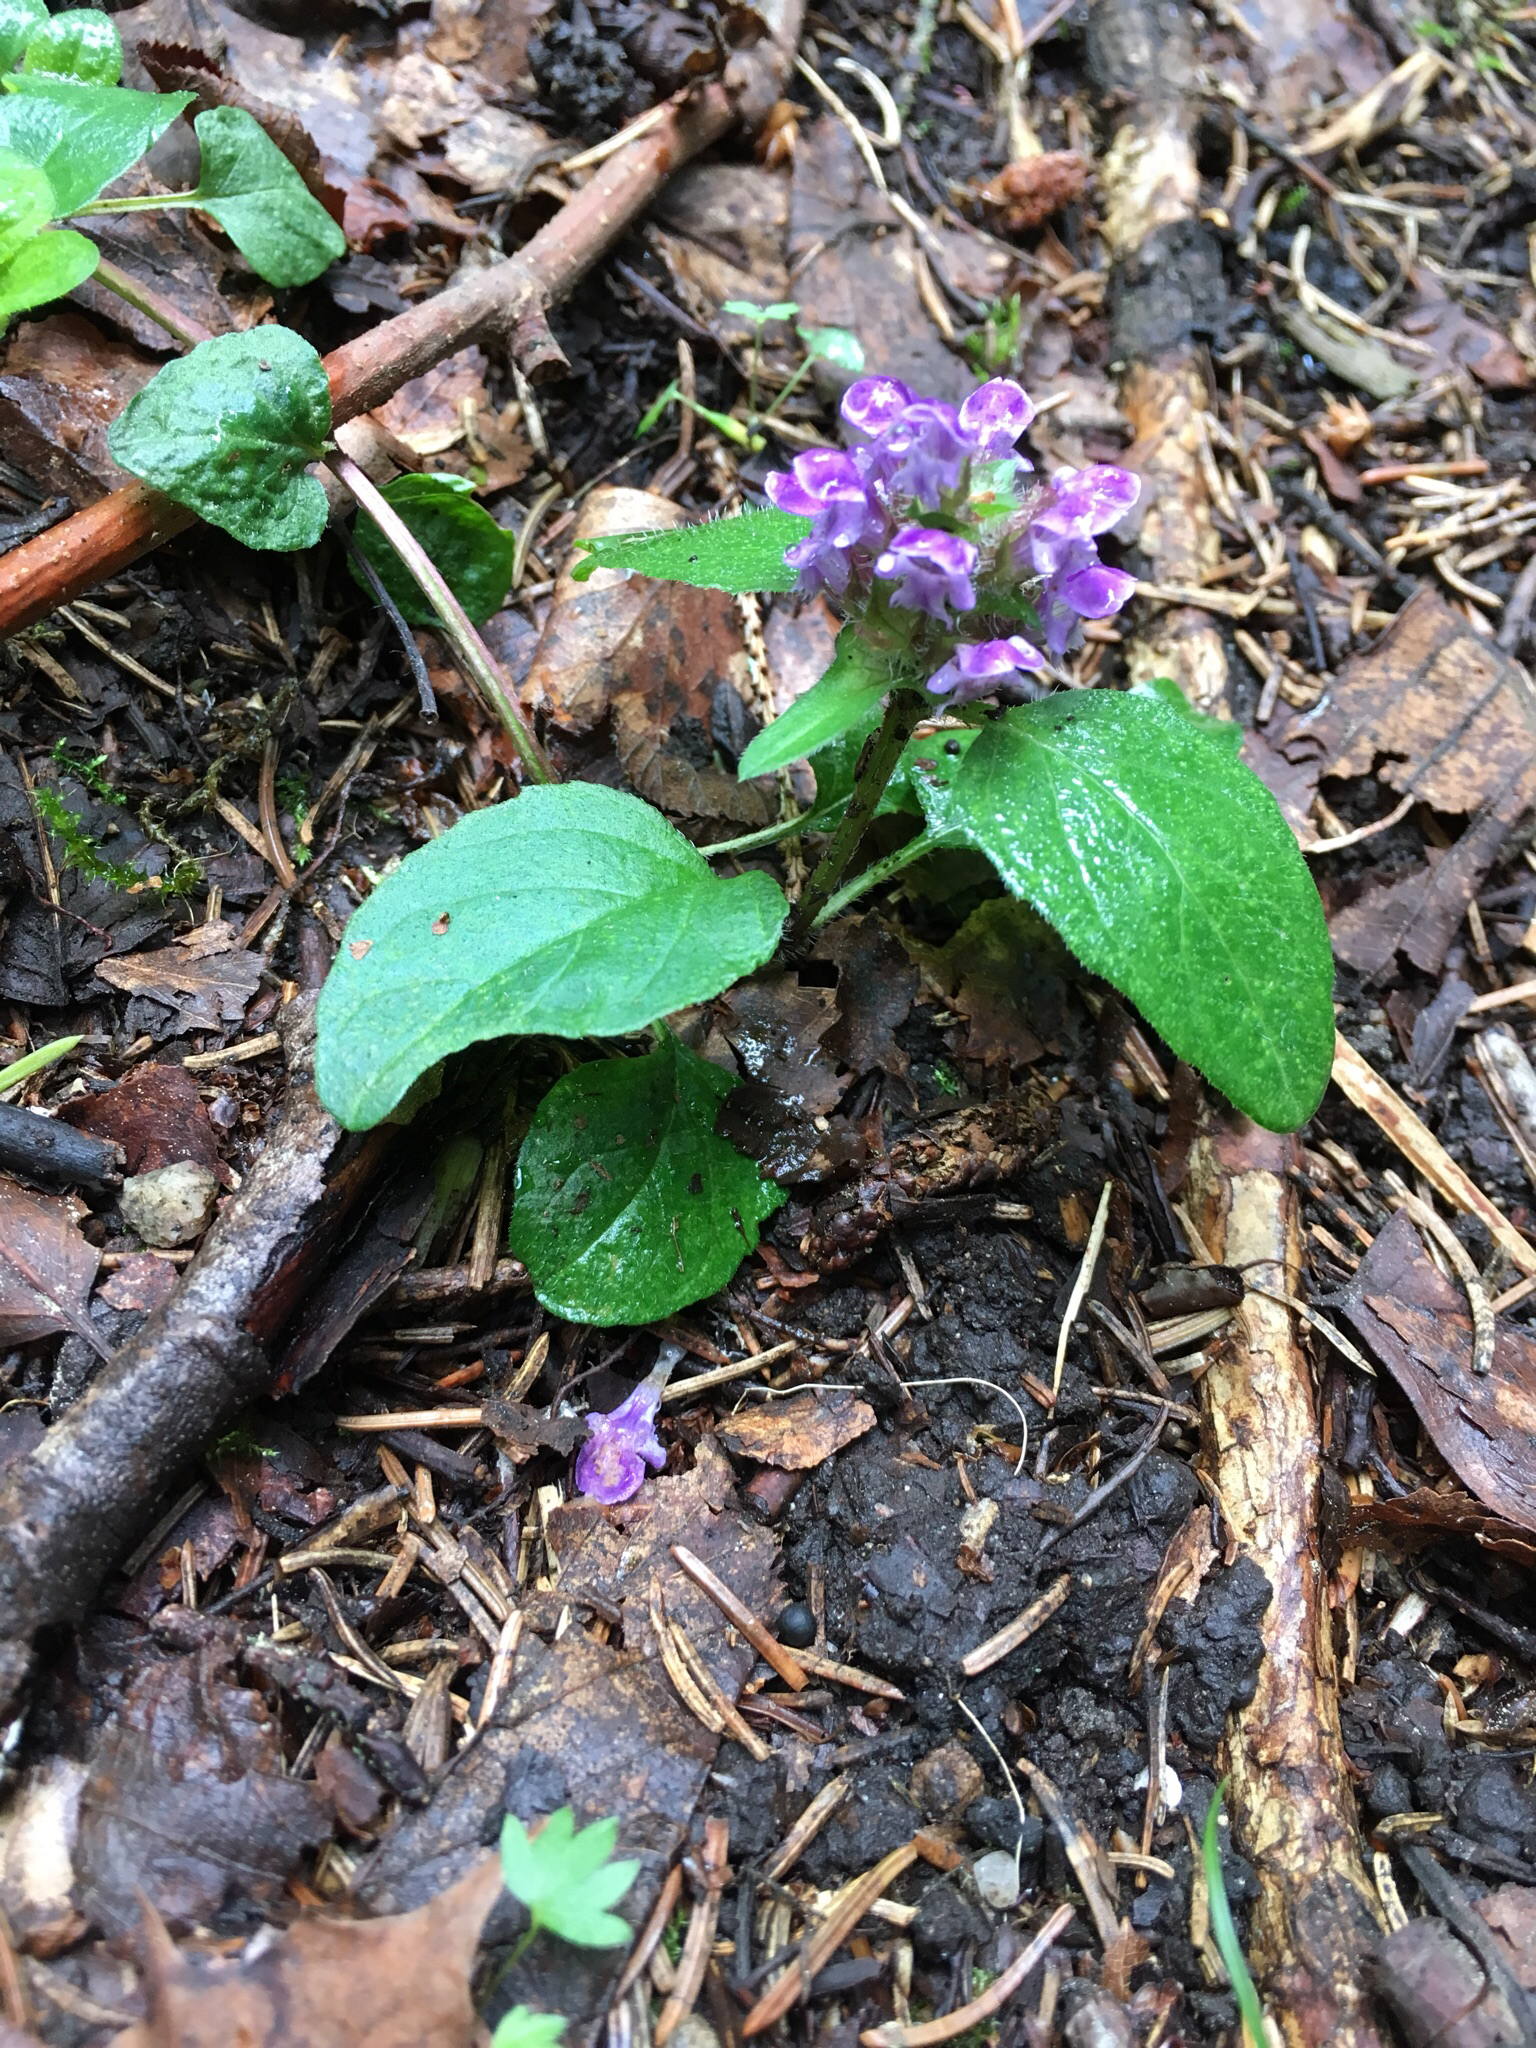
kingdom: Plantae
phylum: Tracheophyta
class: Magnoliopsida
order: Lamiales
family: Lamiaceae
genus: Prunella
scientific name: Prunella vulgaris
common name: Heal-all
